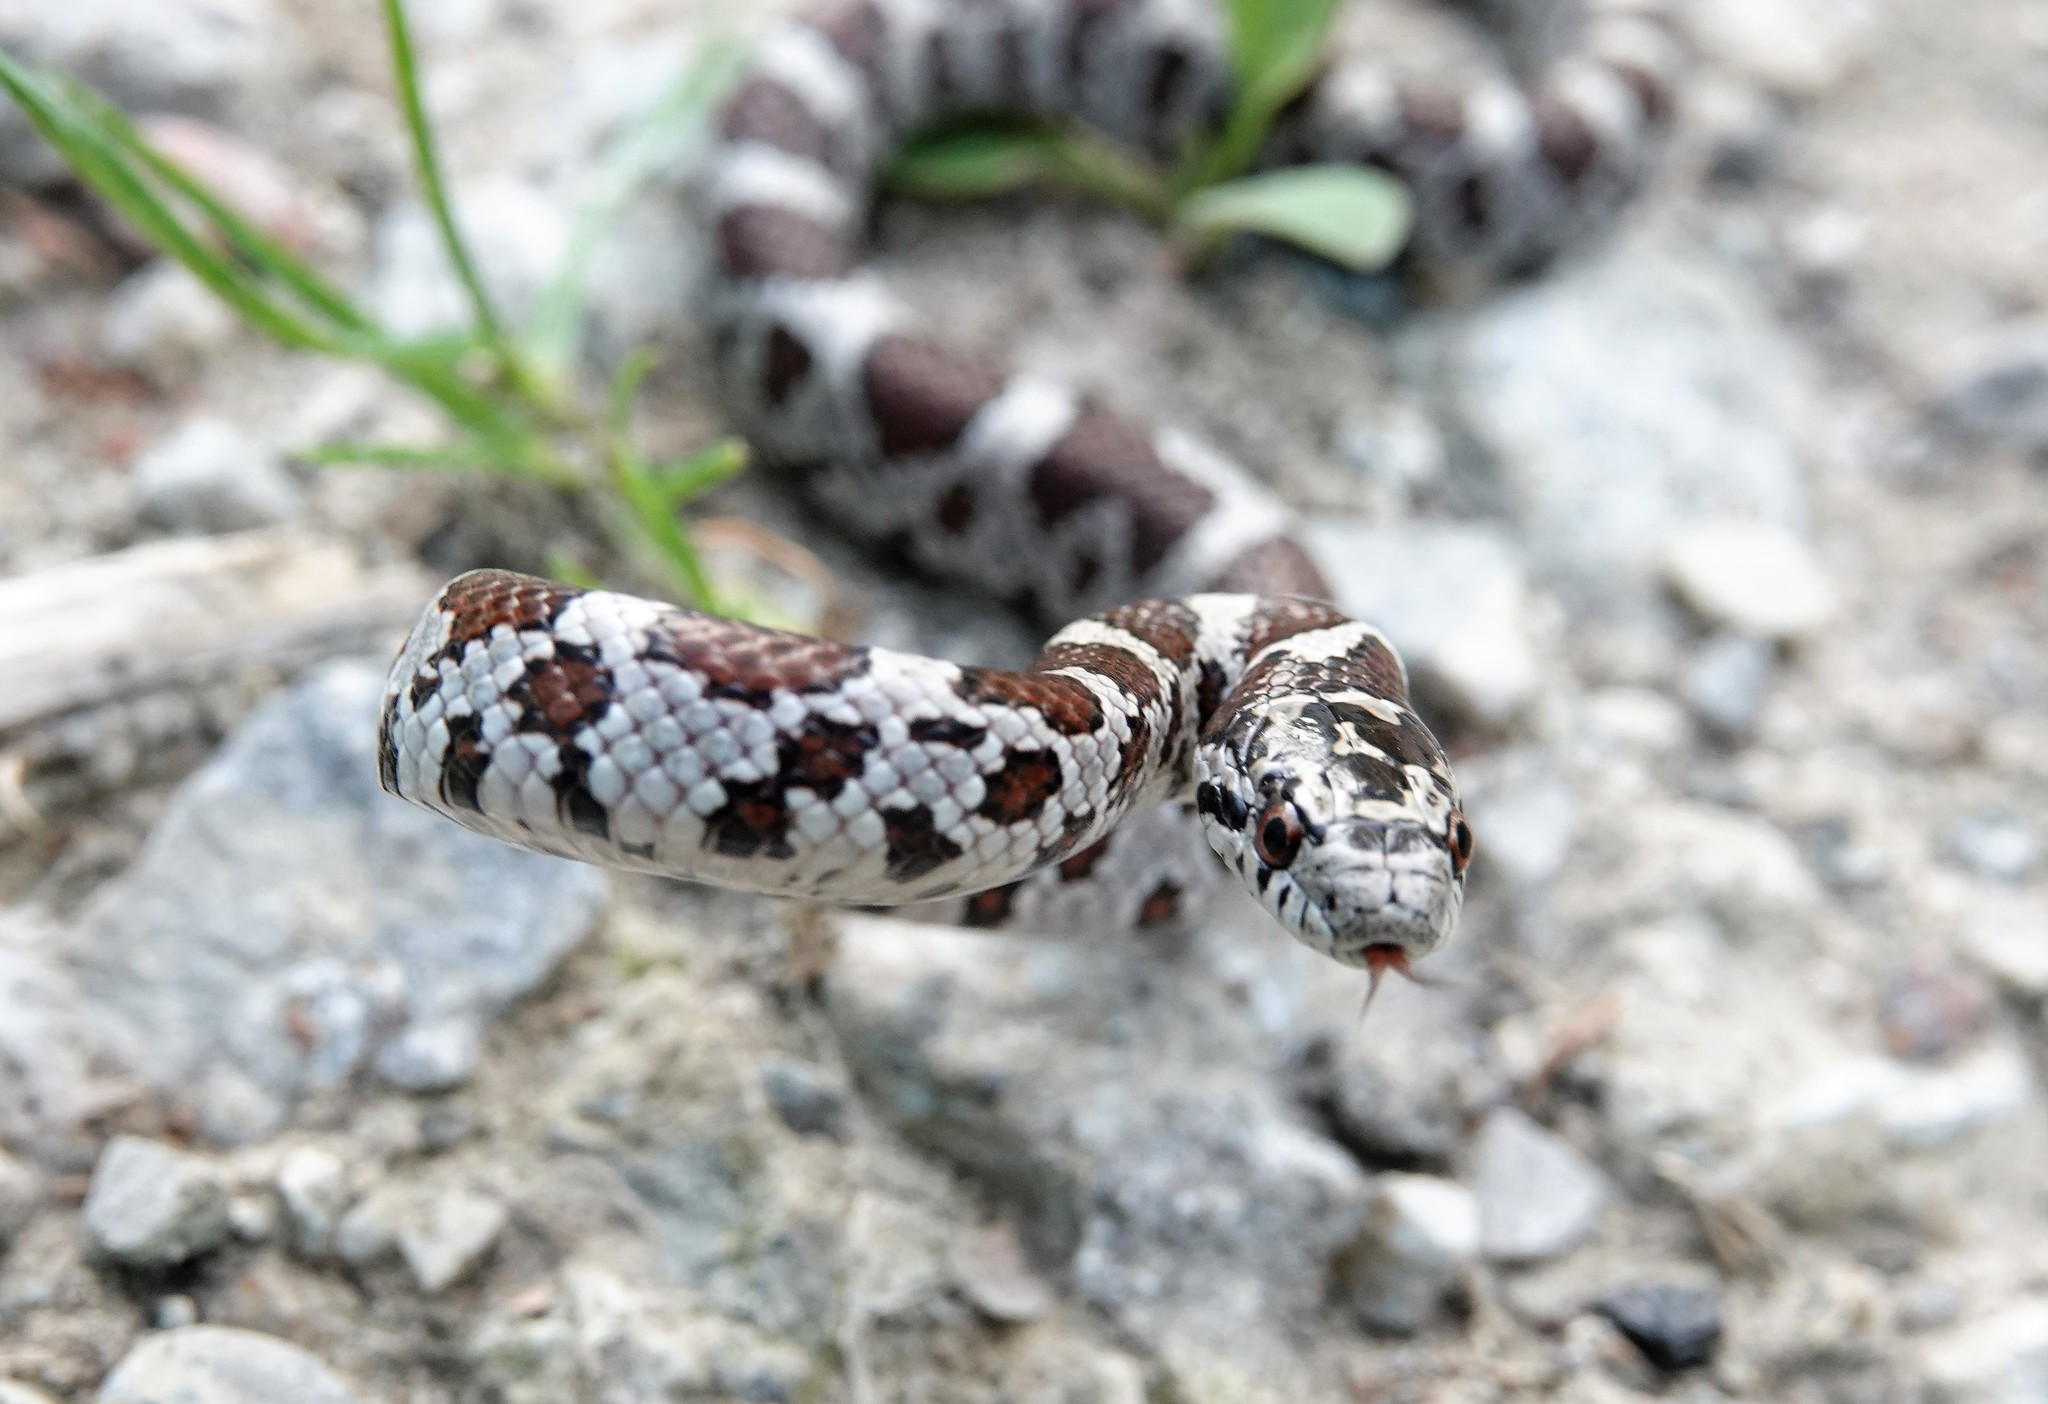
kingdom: Animalia
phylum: Chordata
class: Squamata
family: Colubridae
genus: Lampropeltis
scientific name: Lampropeltis triangulum
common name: Eastern milksnake
